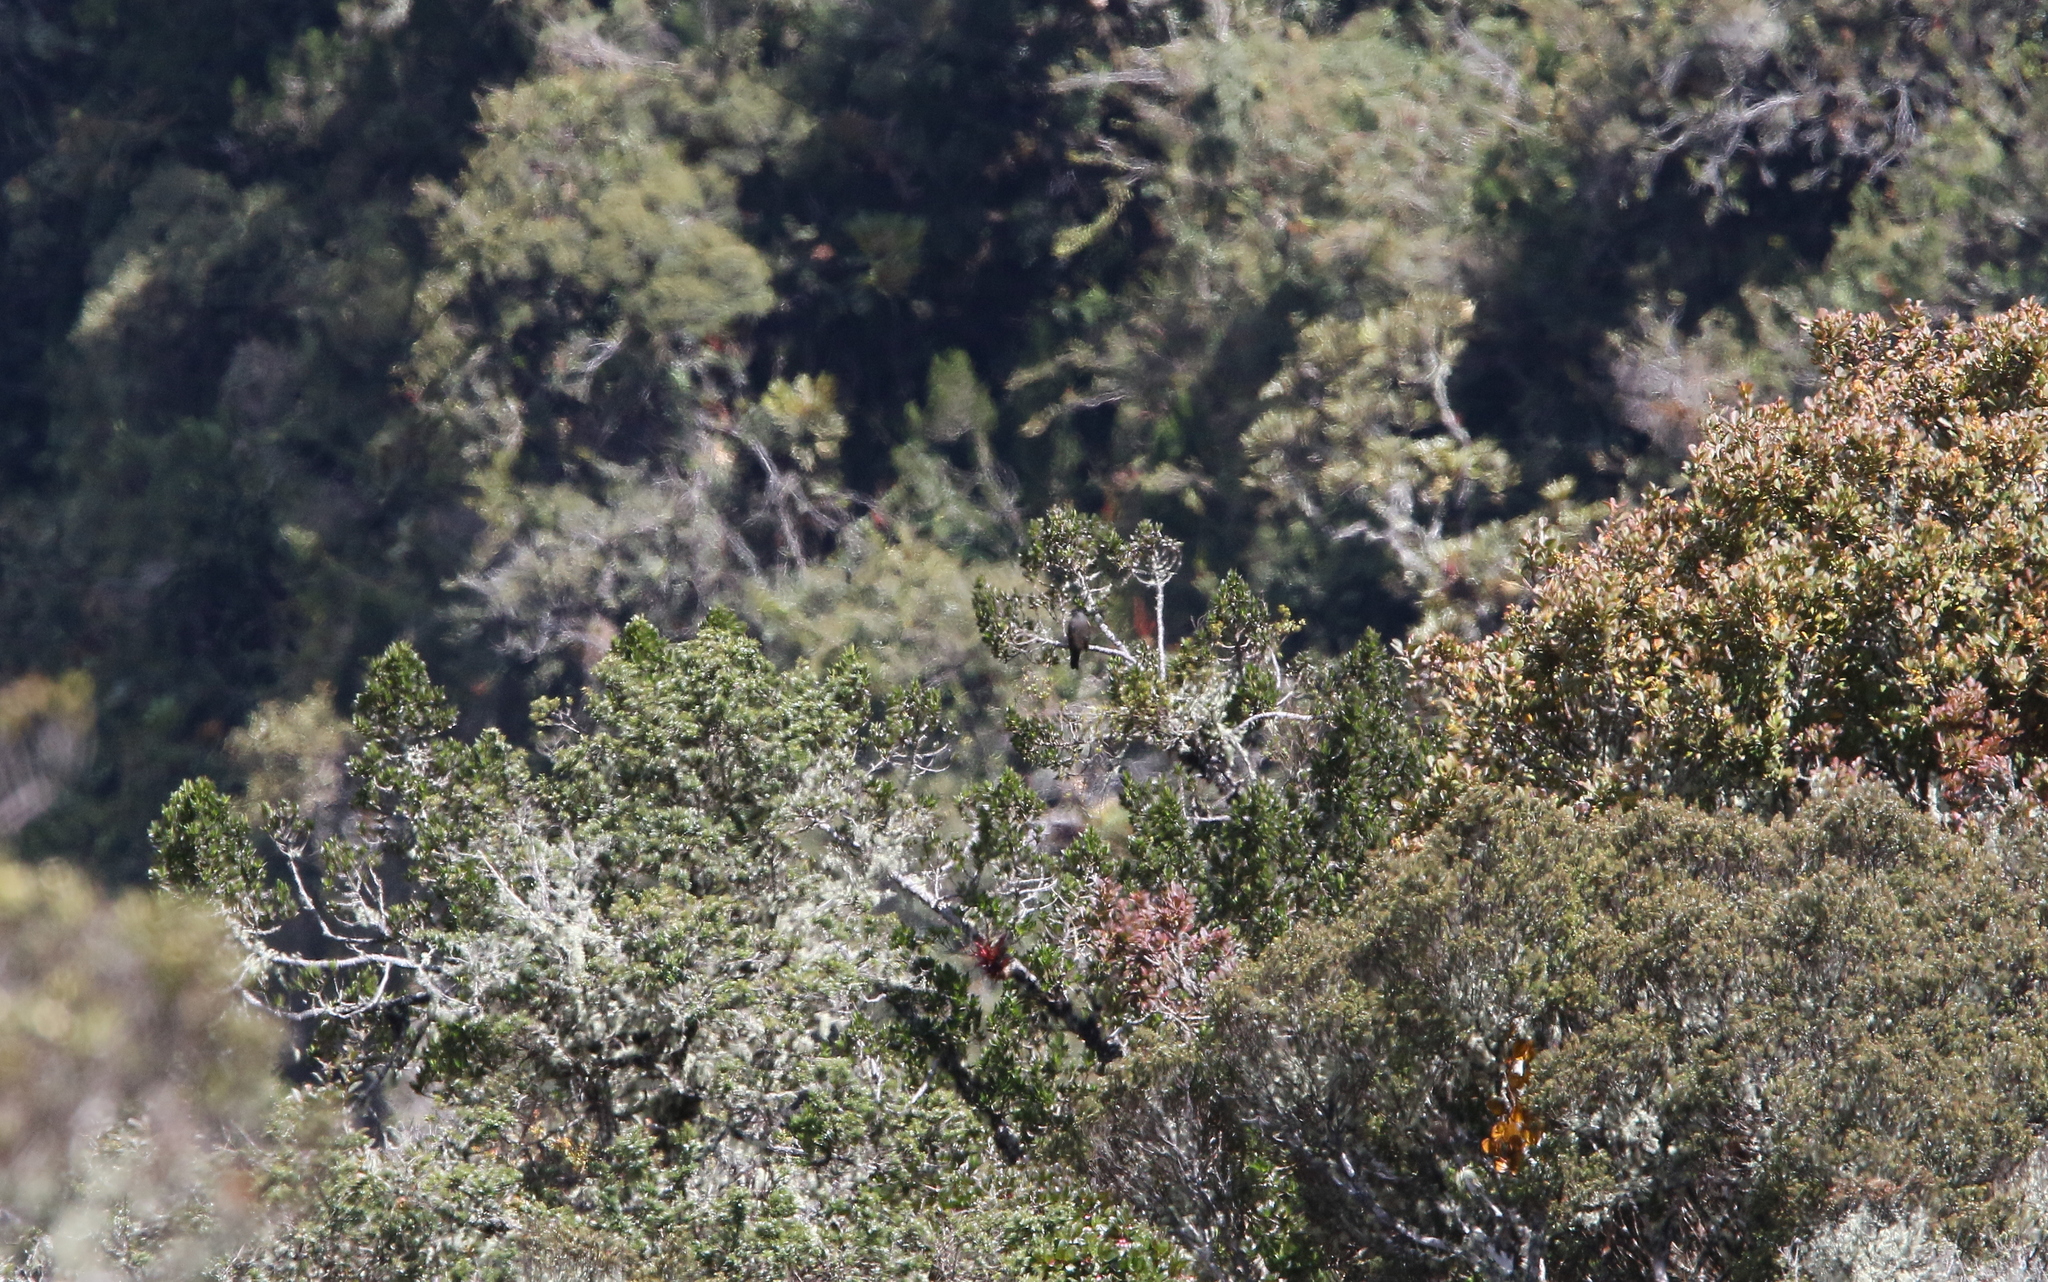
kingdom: Animalia
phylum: Chordata
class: Aves
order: Passeriformes
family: Cotingidae
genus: Doliornis
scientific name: Doliornis remseni
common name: Chestnut-bellied cotinga
